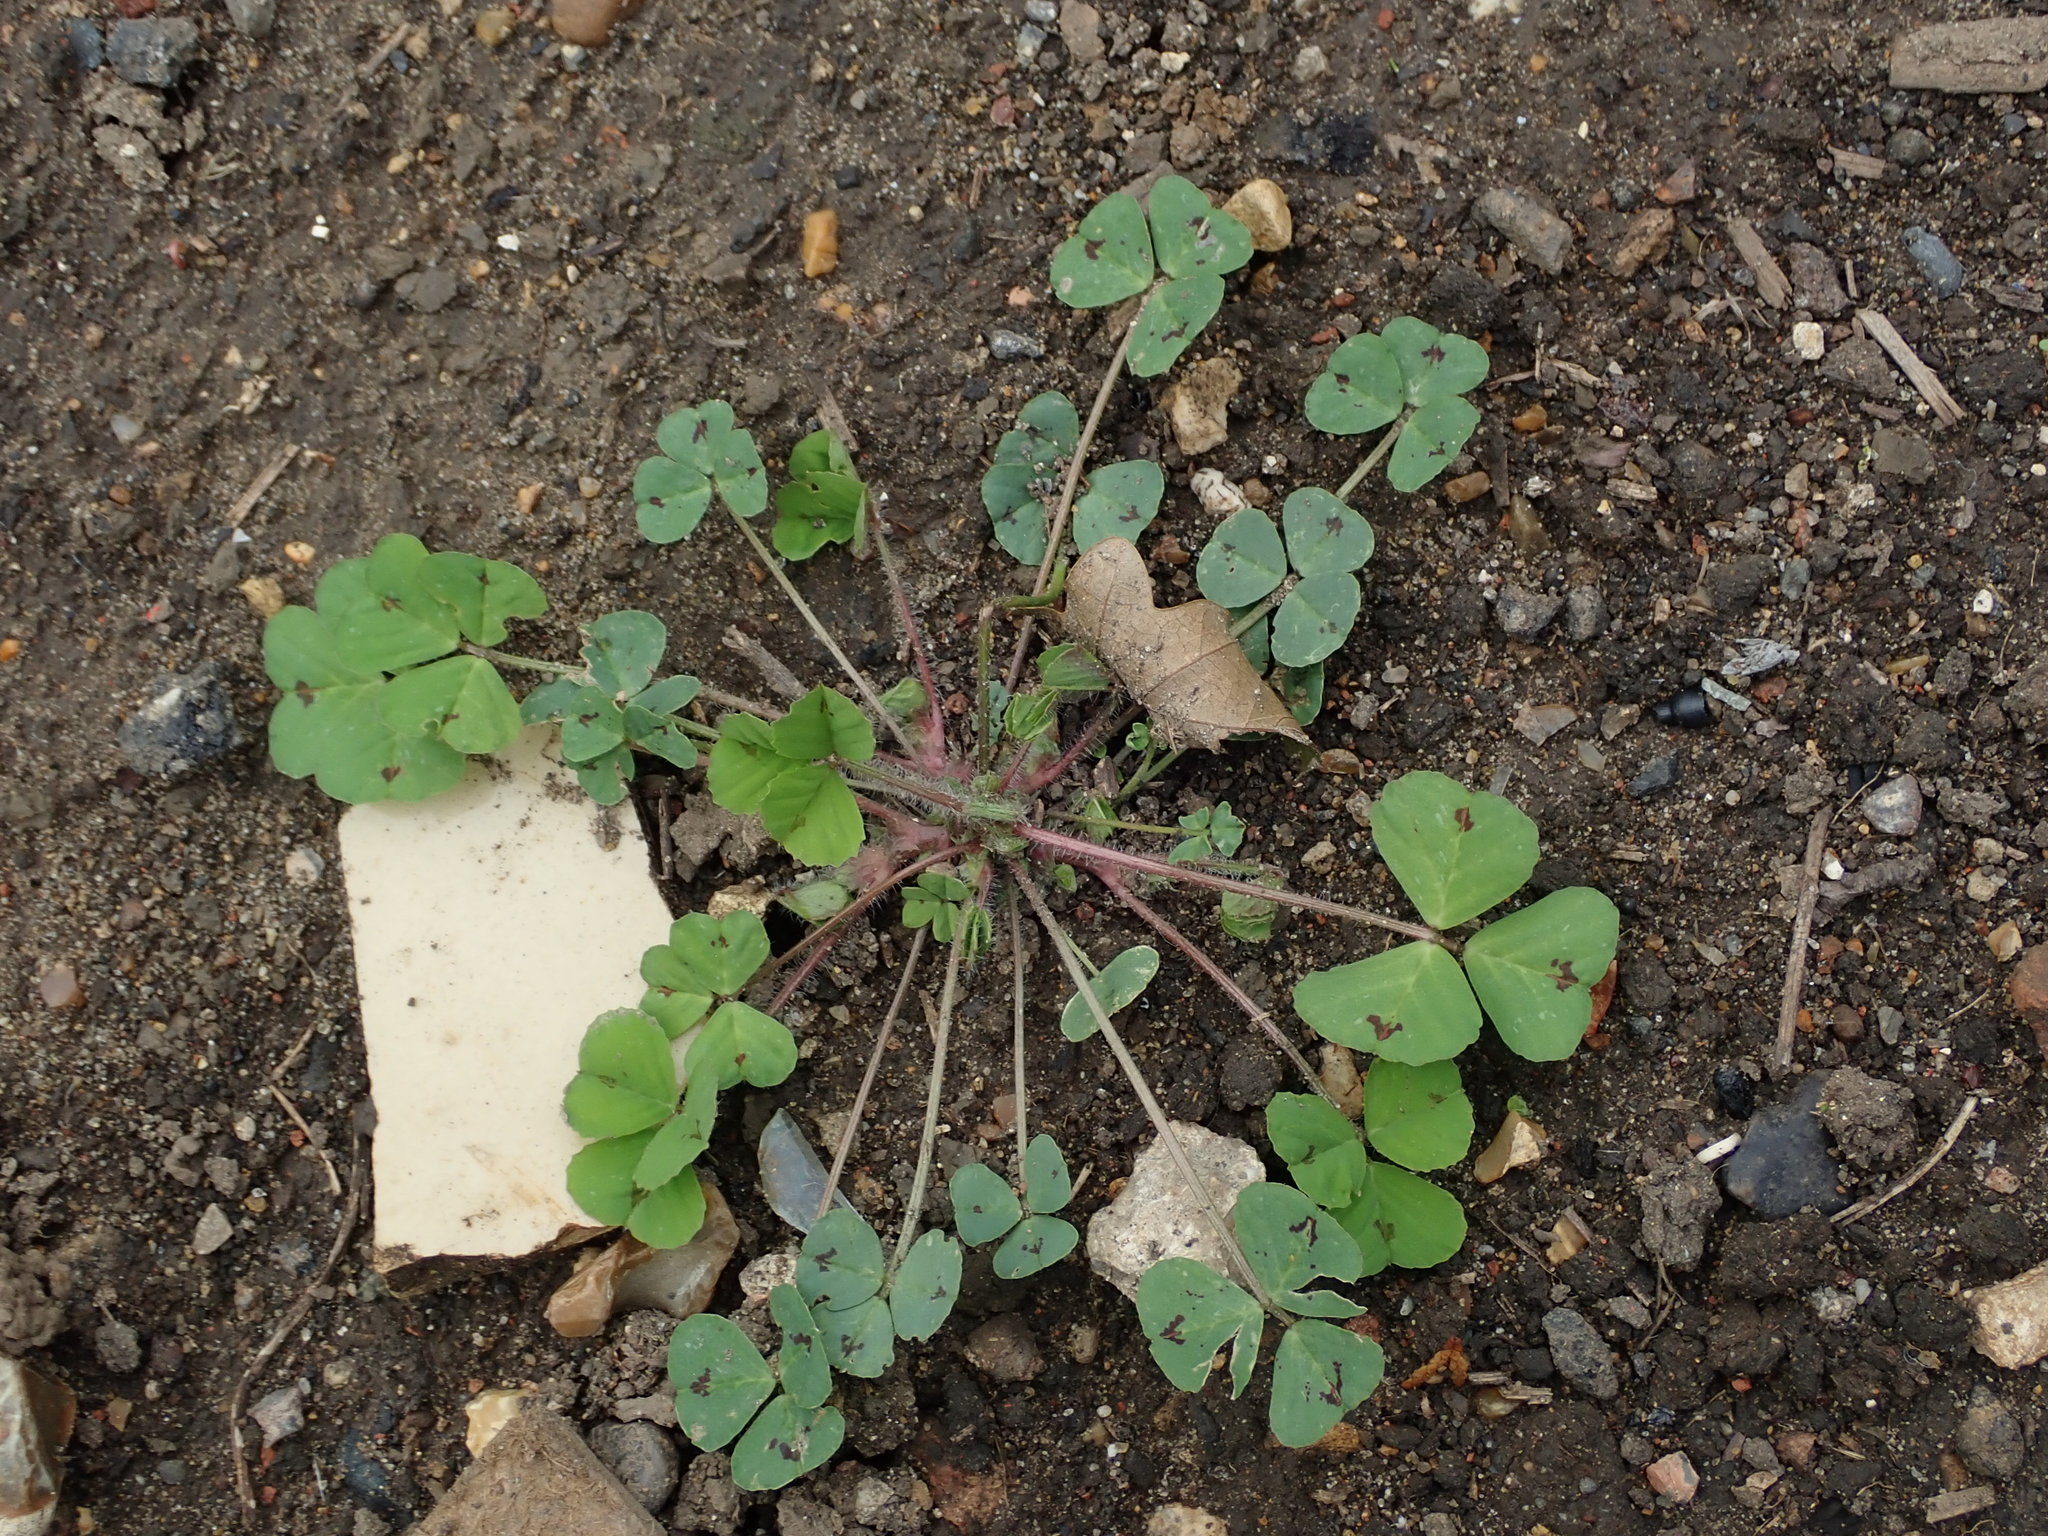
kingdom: Plantae
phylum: Tracheophyta
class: Magnoliopsida
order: Fabales
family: Fabaceae
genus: Medicago
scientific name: Medicago arabica
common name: Spotted medick
